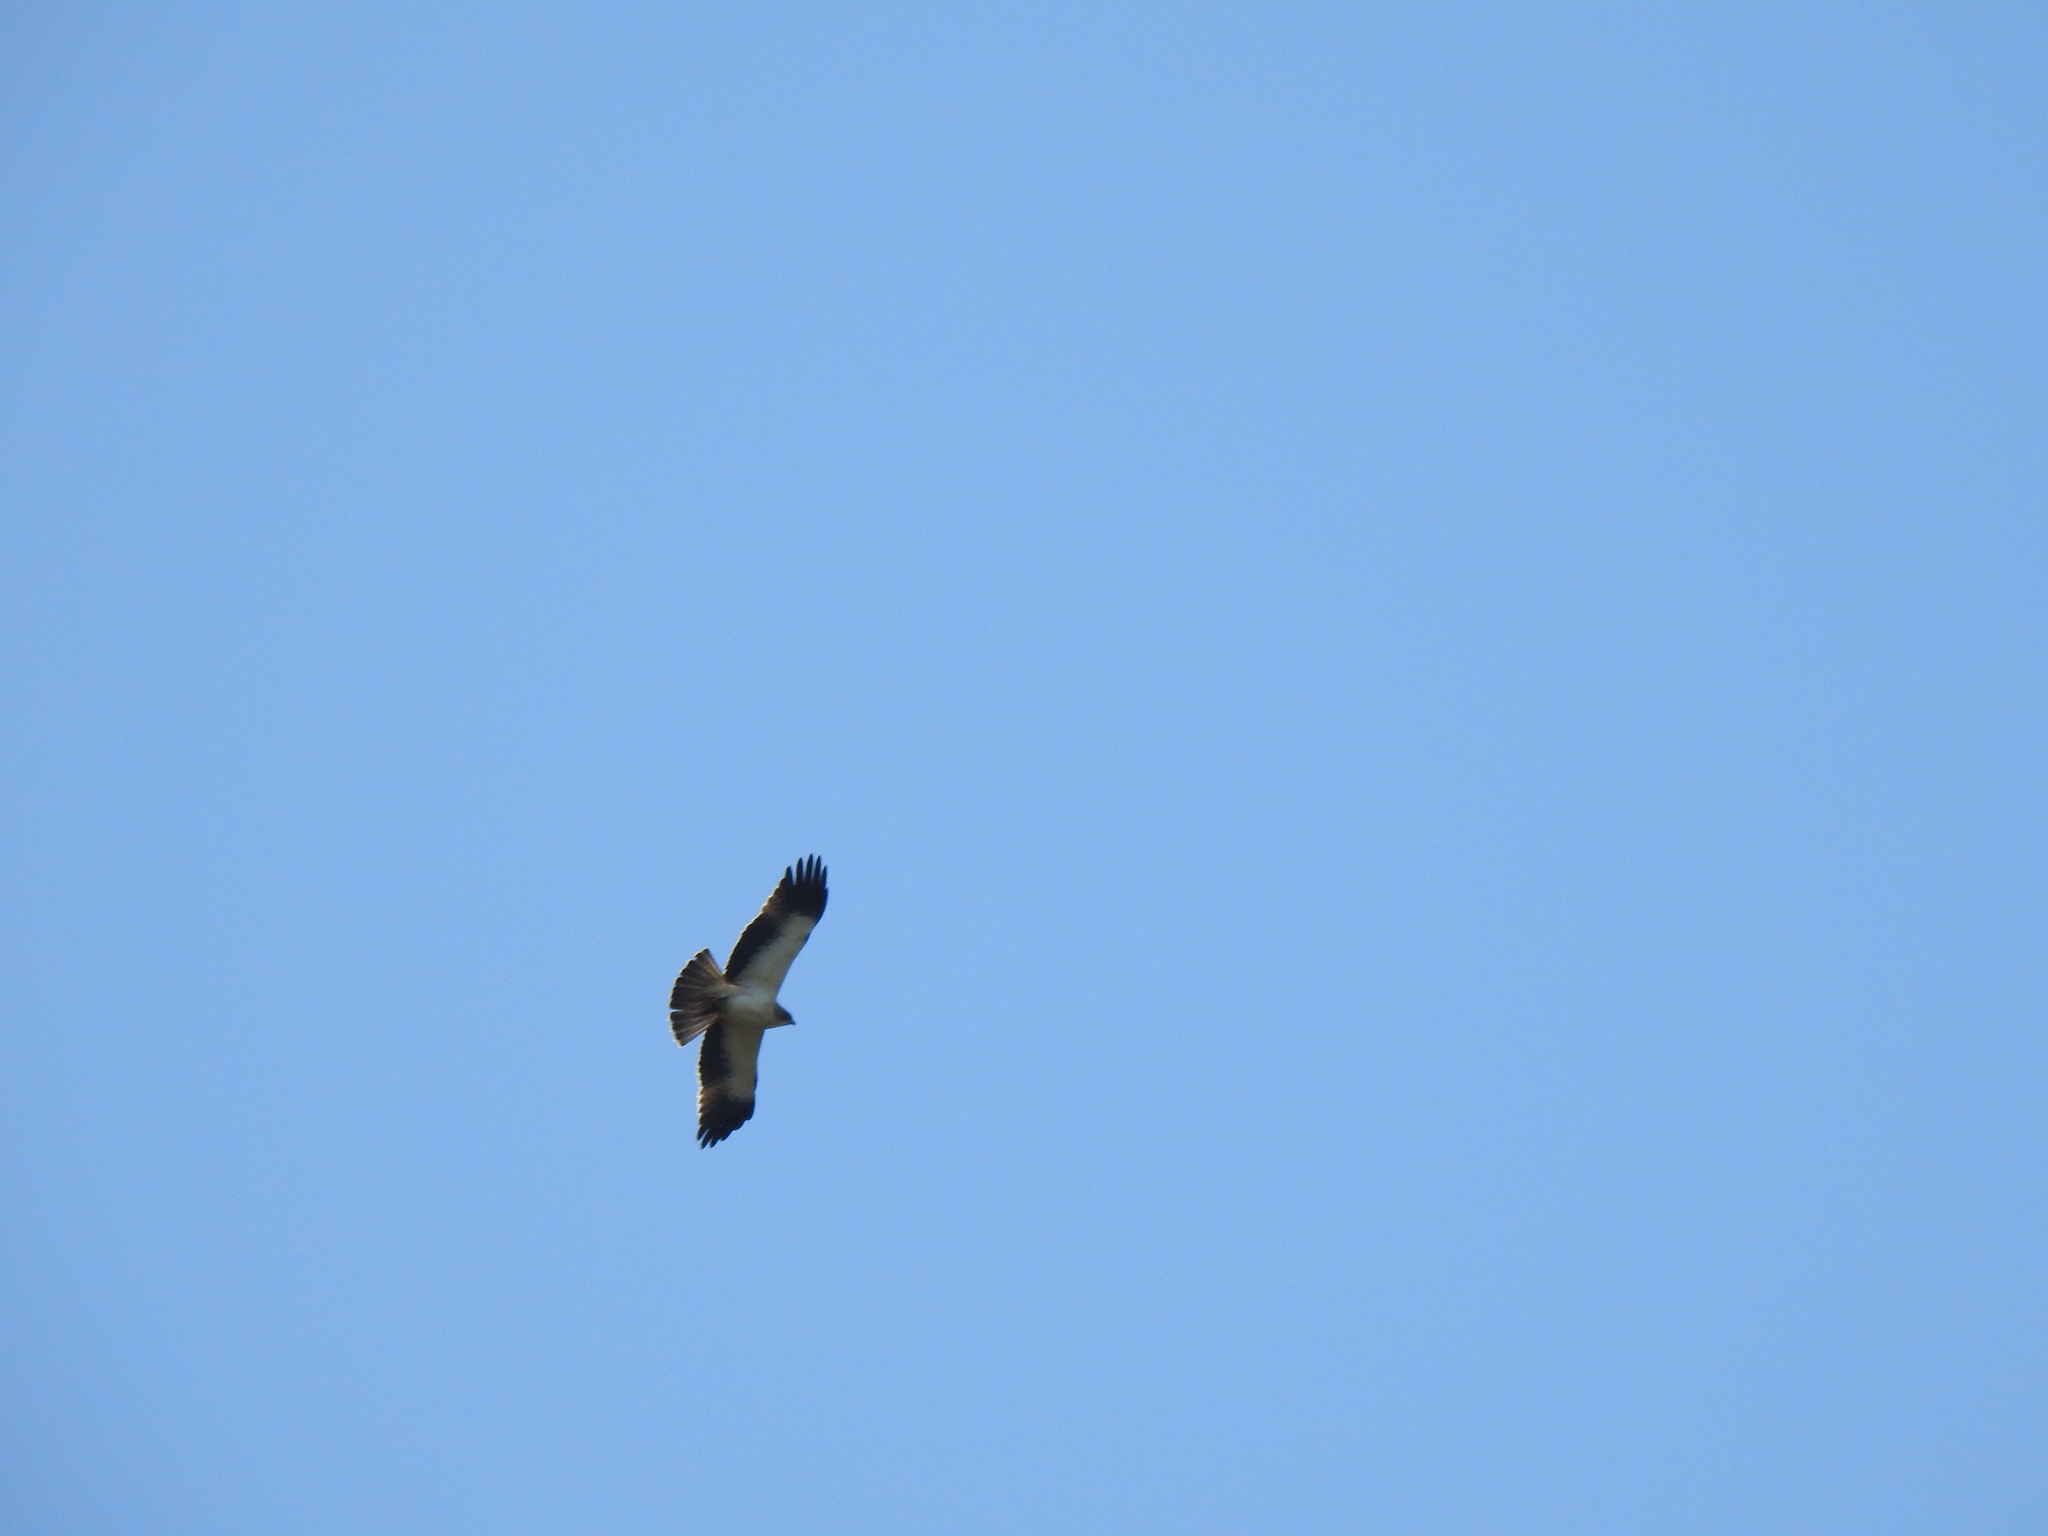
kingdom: Animalia
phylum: Chordata
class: Aves
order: Accipitriformes
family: Accipitridae
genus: Hieraaetus
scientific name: Hieraaetus pennatus
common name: Booted eagle
